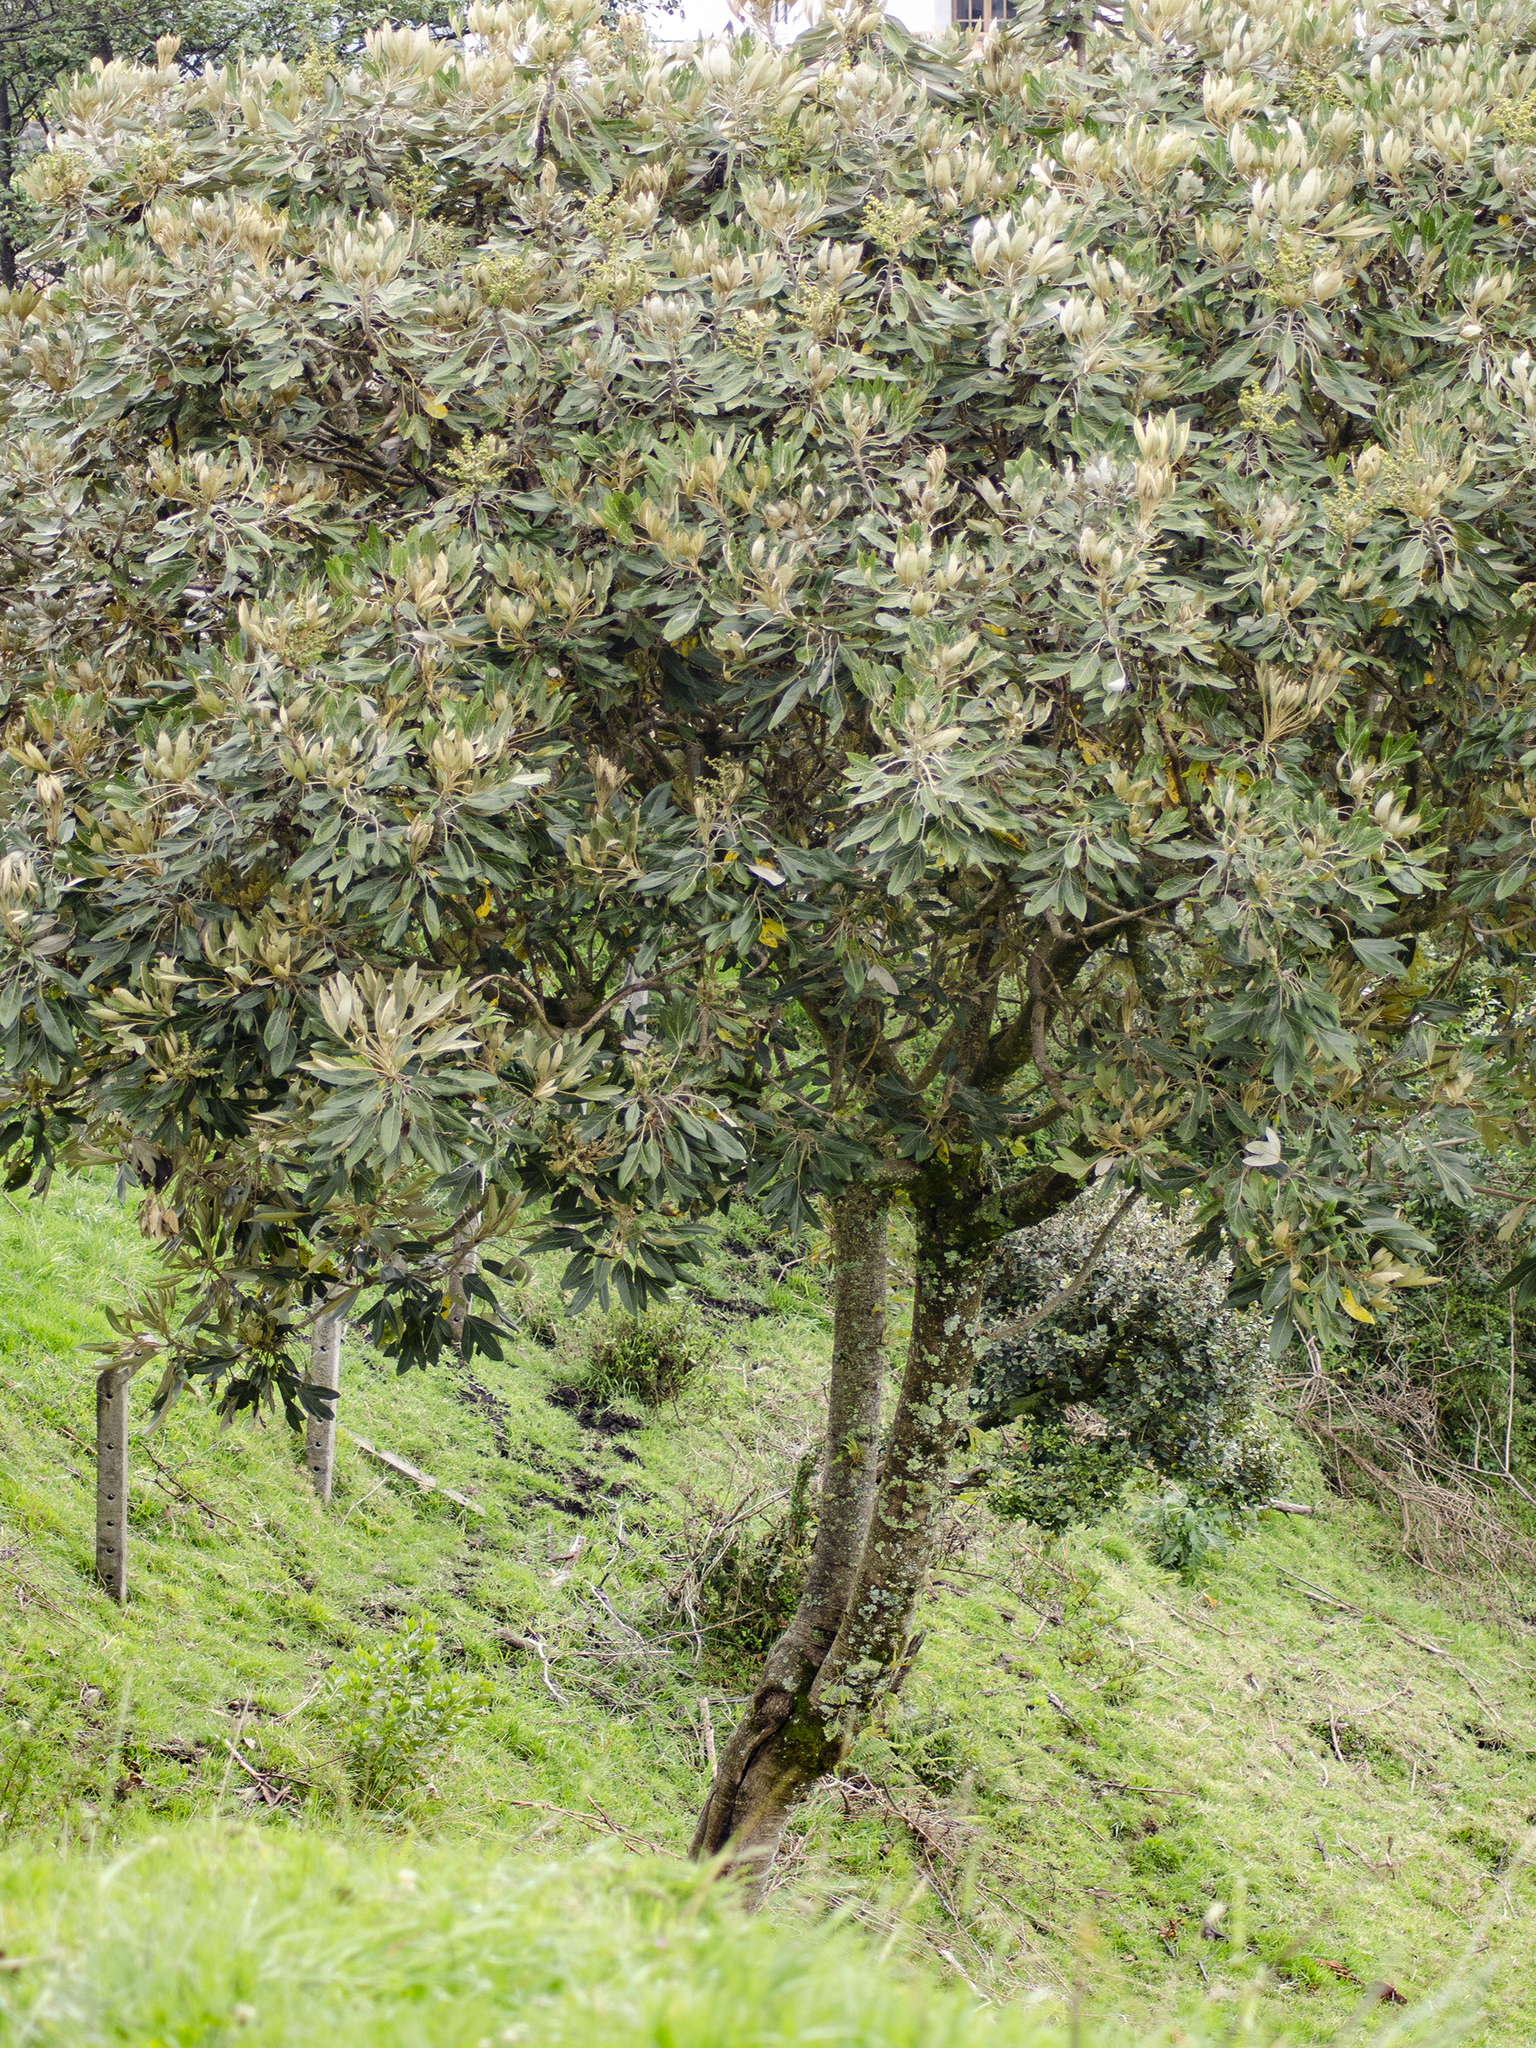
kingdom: Plantae
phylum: Tracheophyta
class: Magnoliopsida
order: Apiales
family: Araliaceae
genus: Oreopanax
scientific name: Oreopanax ecuadorensis
